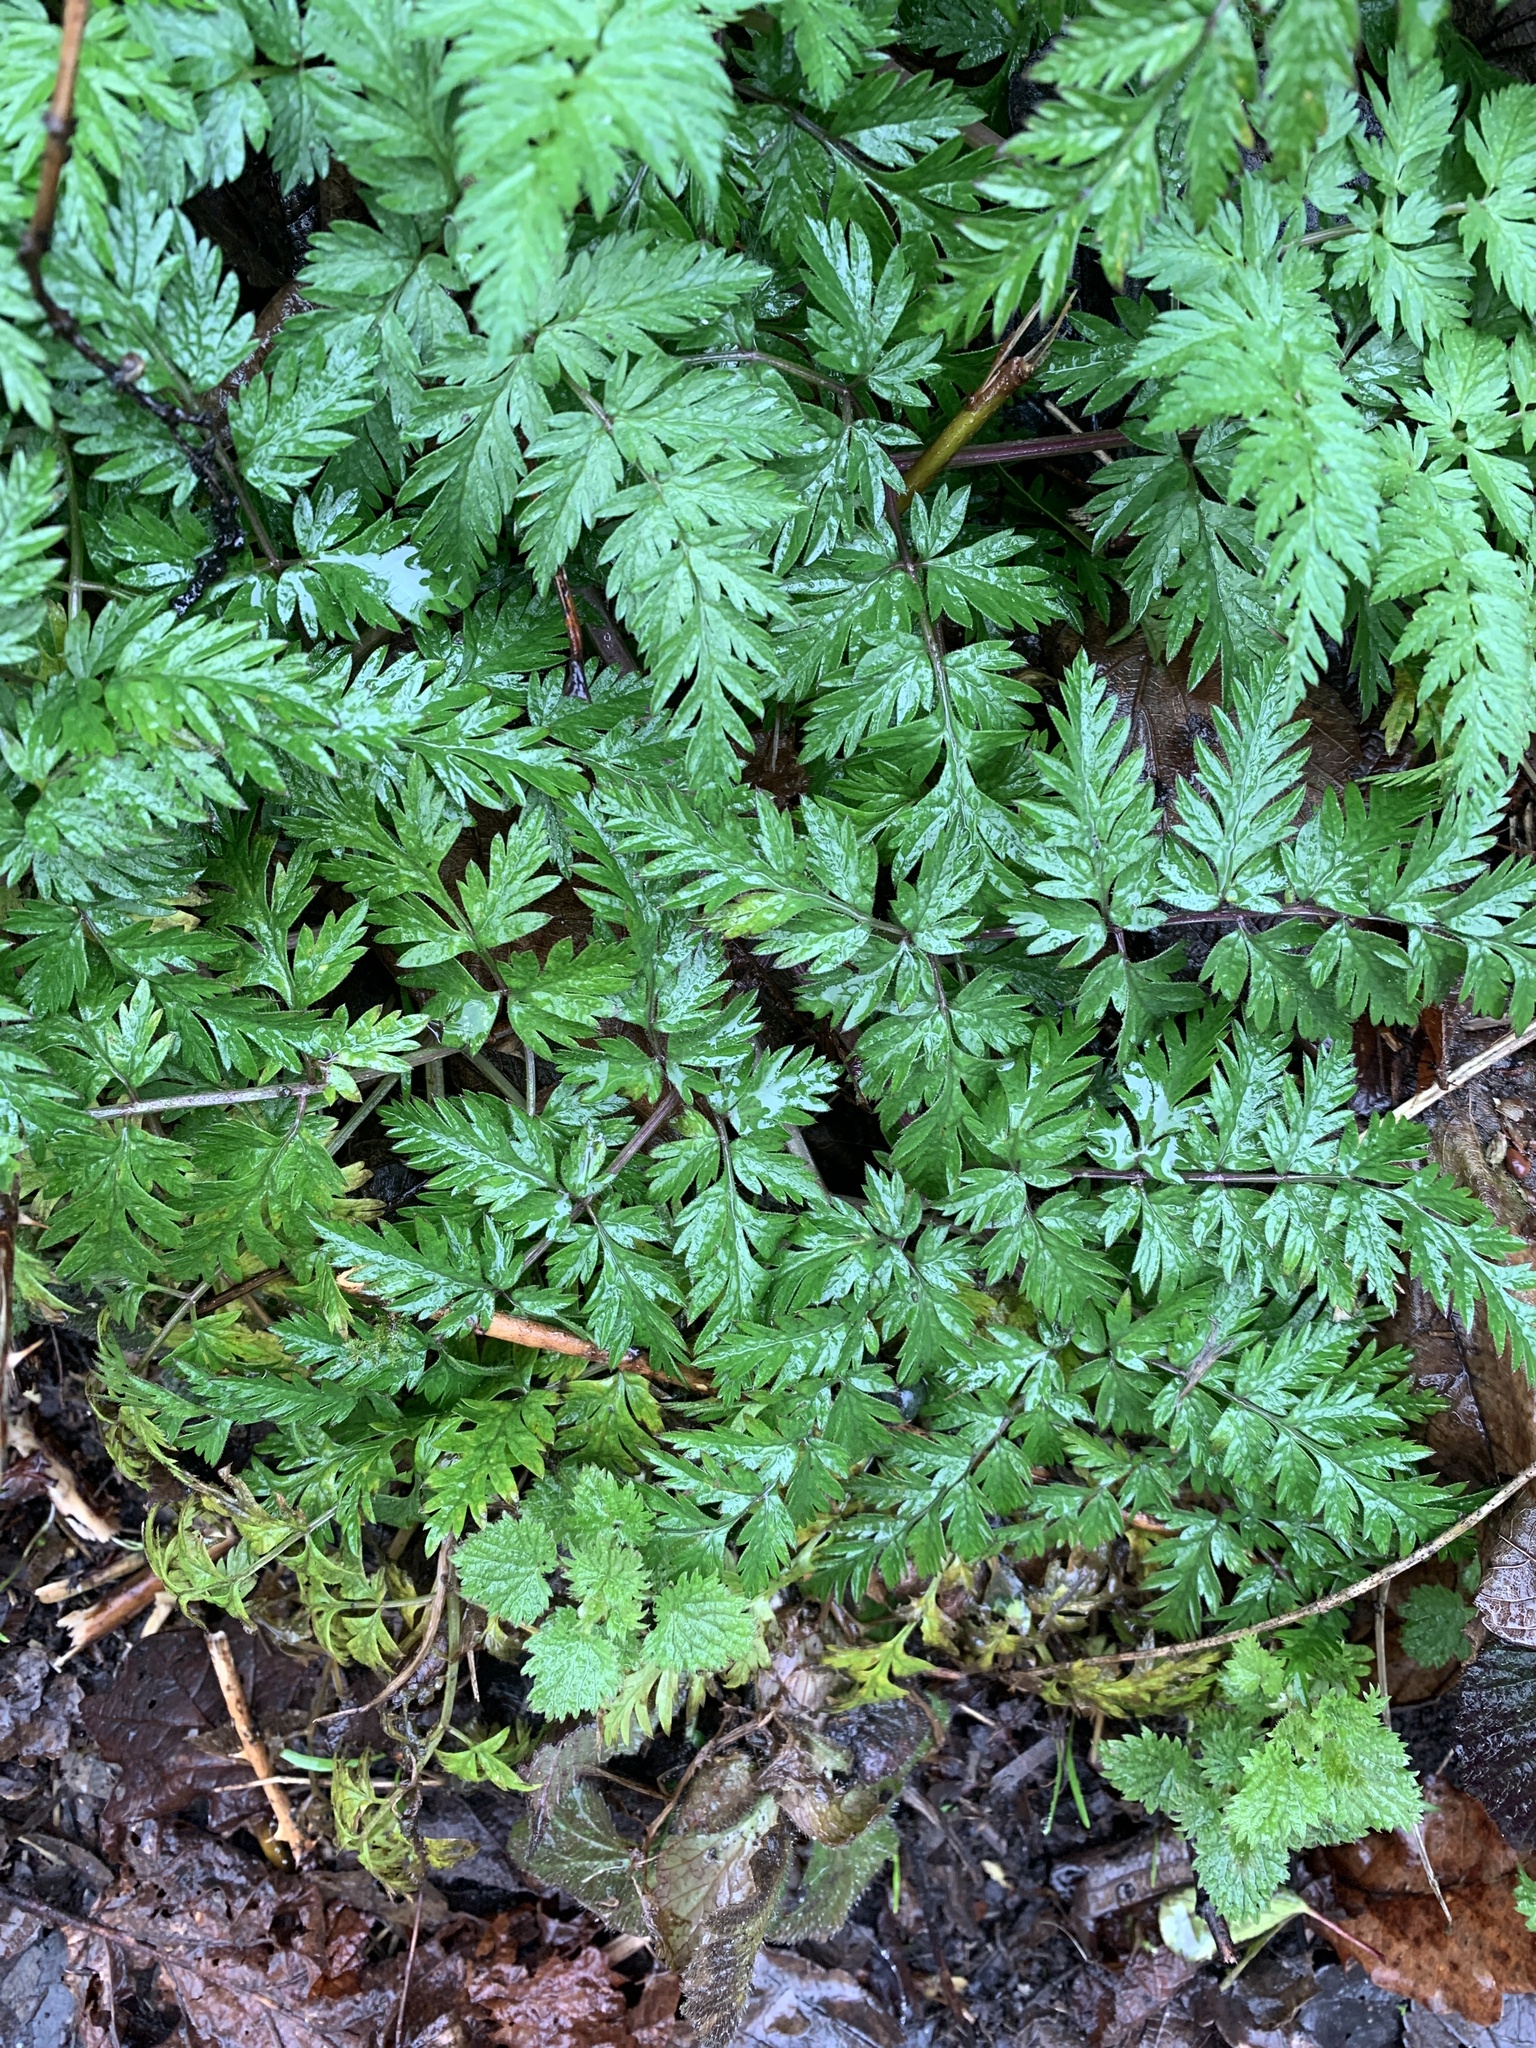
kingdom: Plantae
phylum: Tracheophyta
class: Magnoliopsida
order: Apiales
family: Apiaceae
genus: Anthriscus
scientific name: Anthriscus sylvestris
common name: Cow parsley
